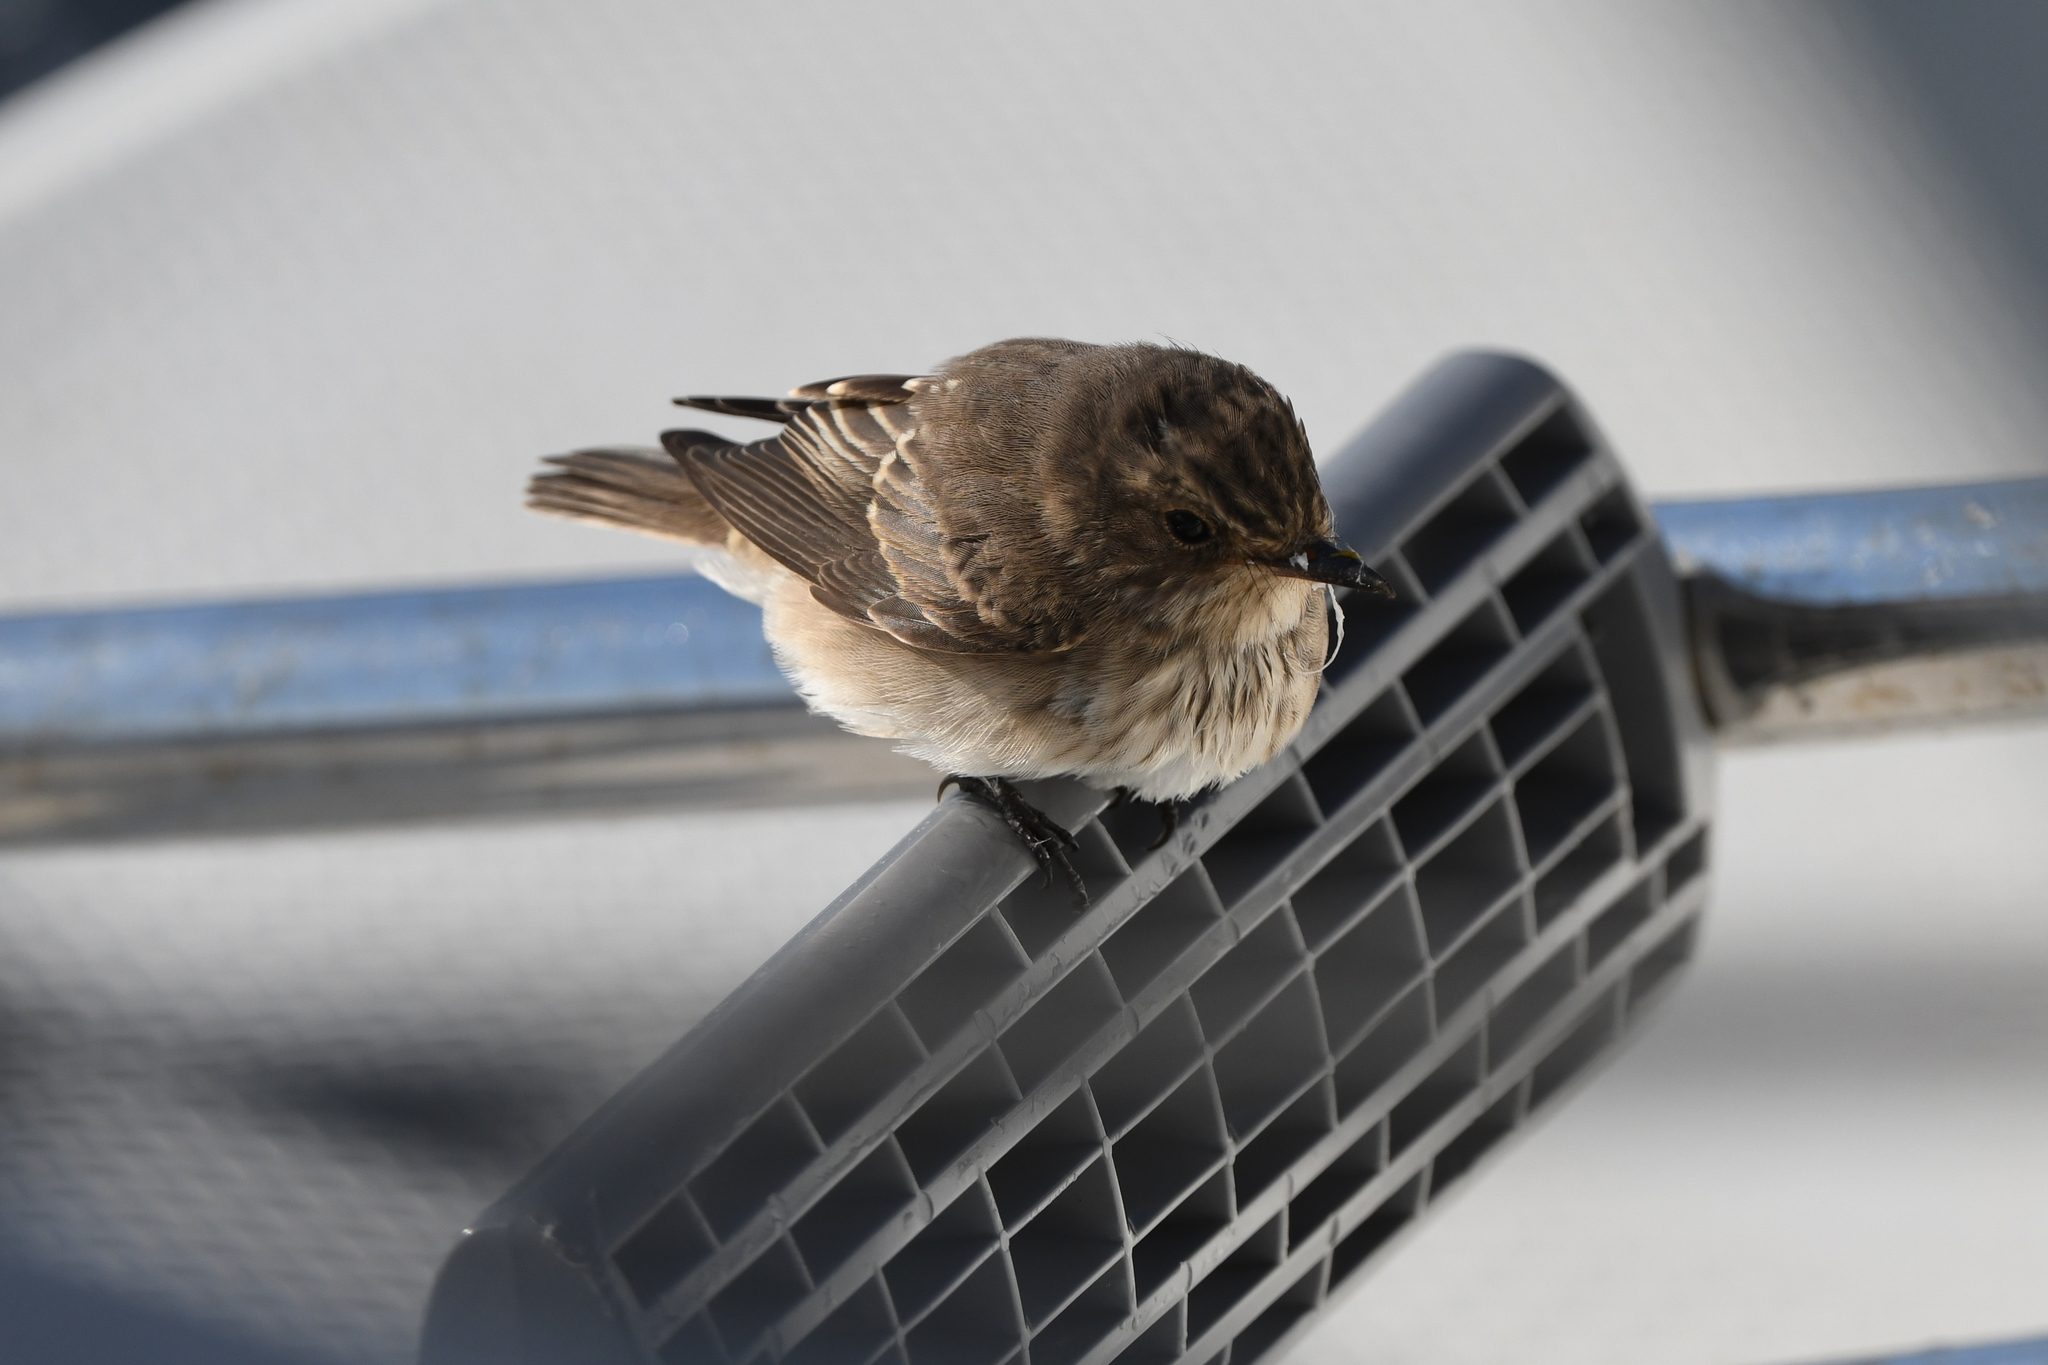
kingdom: Animalia
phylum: Chordata
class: Aves
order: Passeriformes
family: Muscicapidae
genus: Muscicapa
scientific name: Muscicapa striata
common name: Spotted flycatcher
